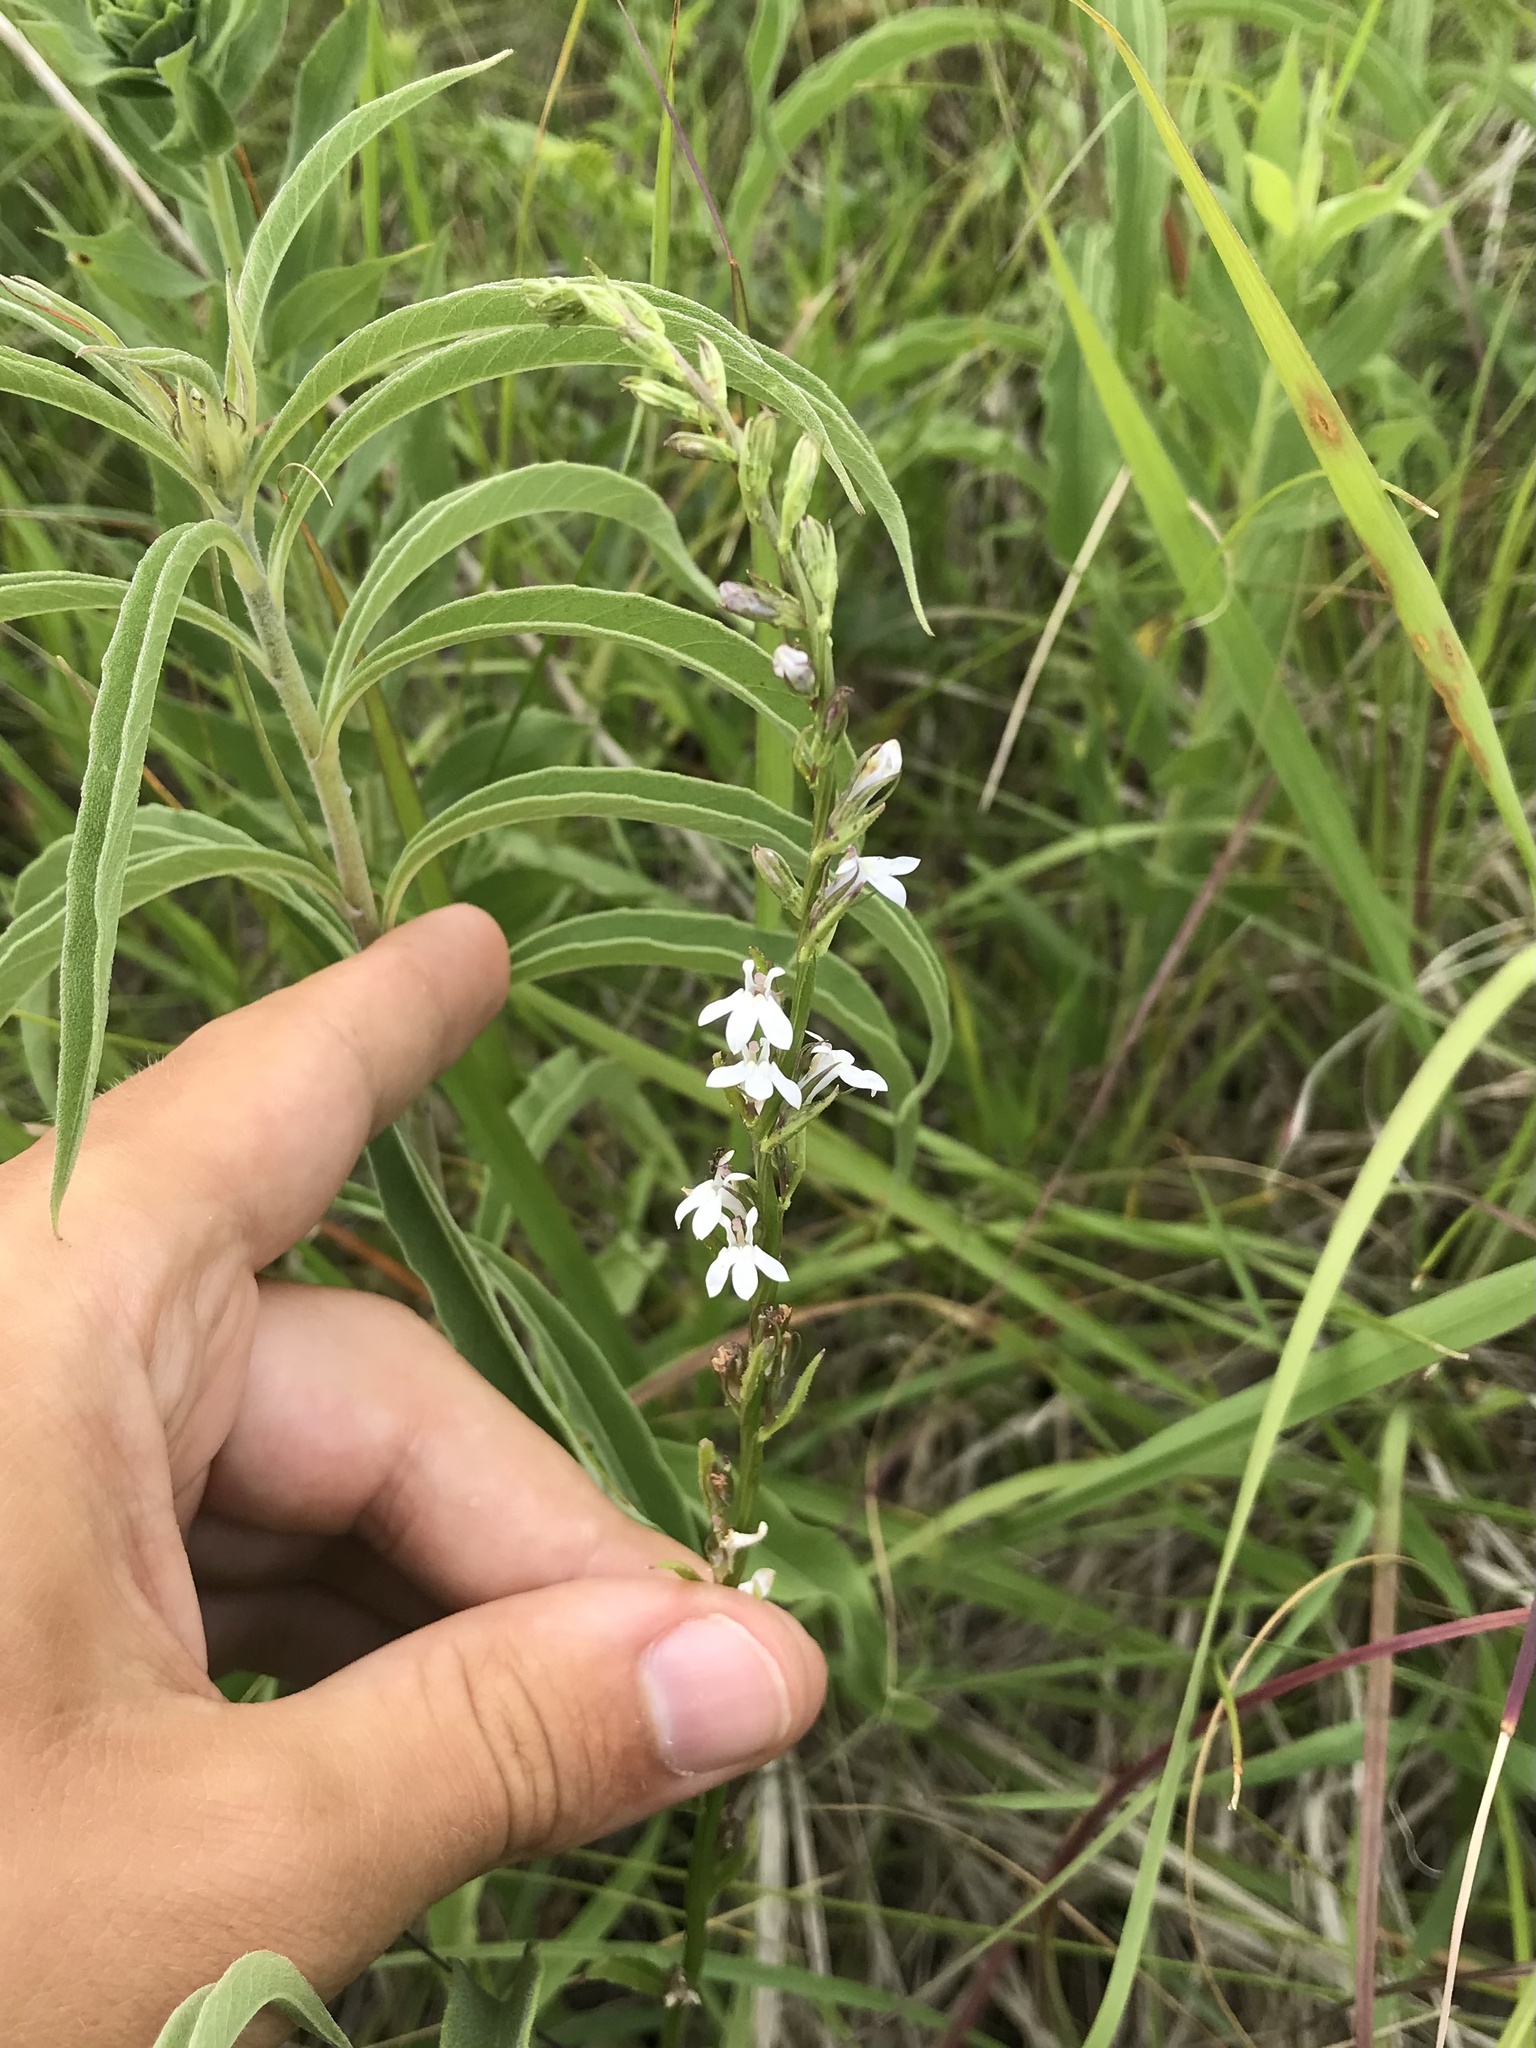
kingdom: Plantae
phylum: Tracheophyta
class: Magnoliopsida
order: Asterales
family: Campanulaceae
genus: Lobelia
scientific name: Lobelia spicata
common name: Pale-spike lobelia
